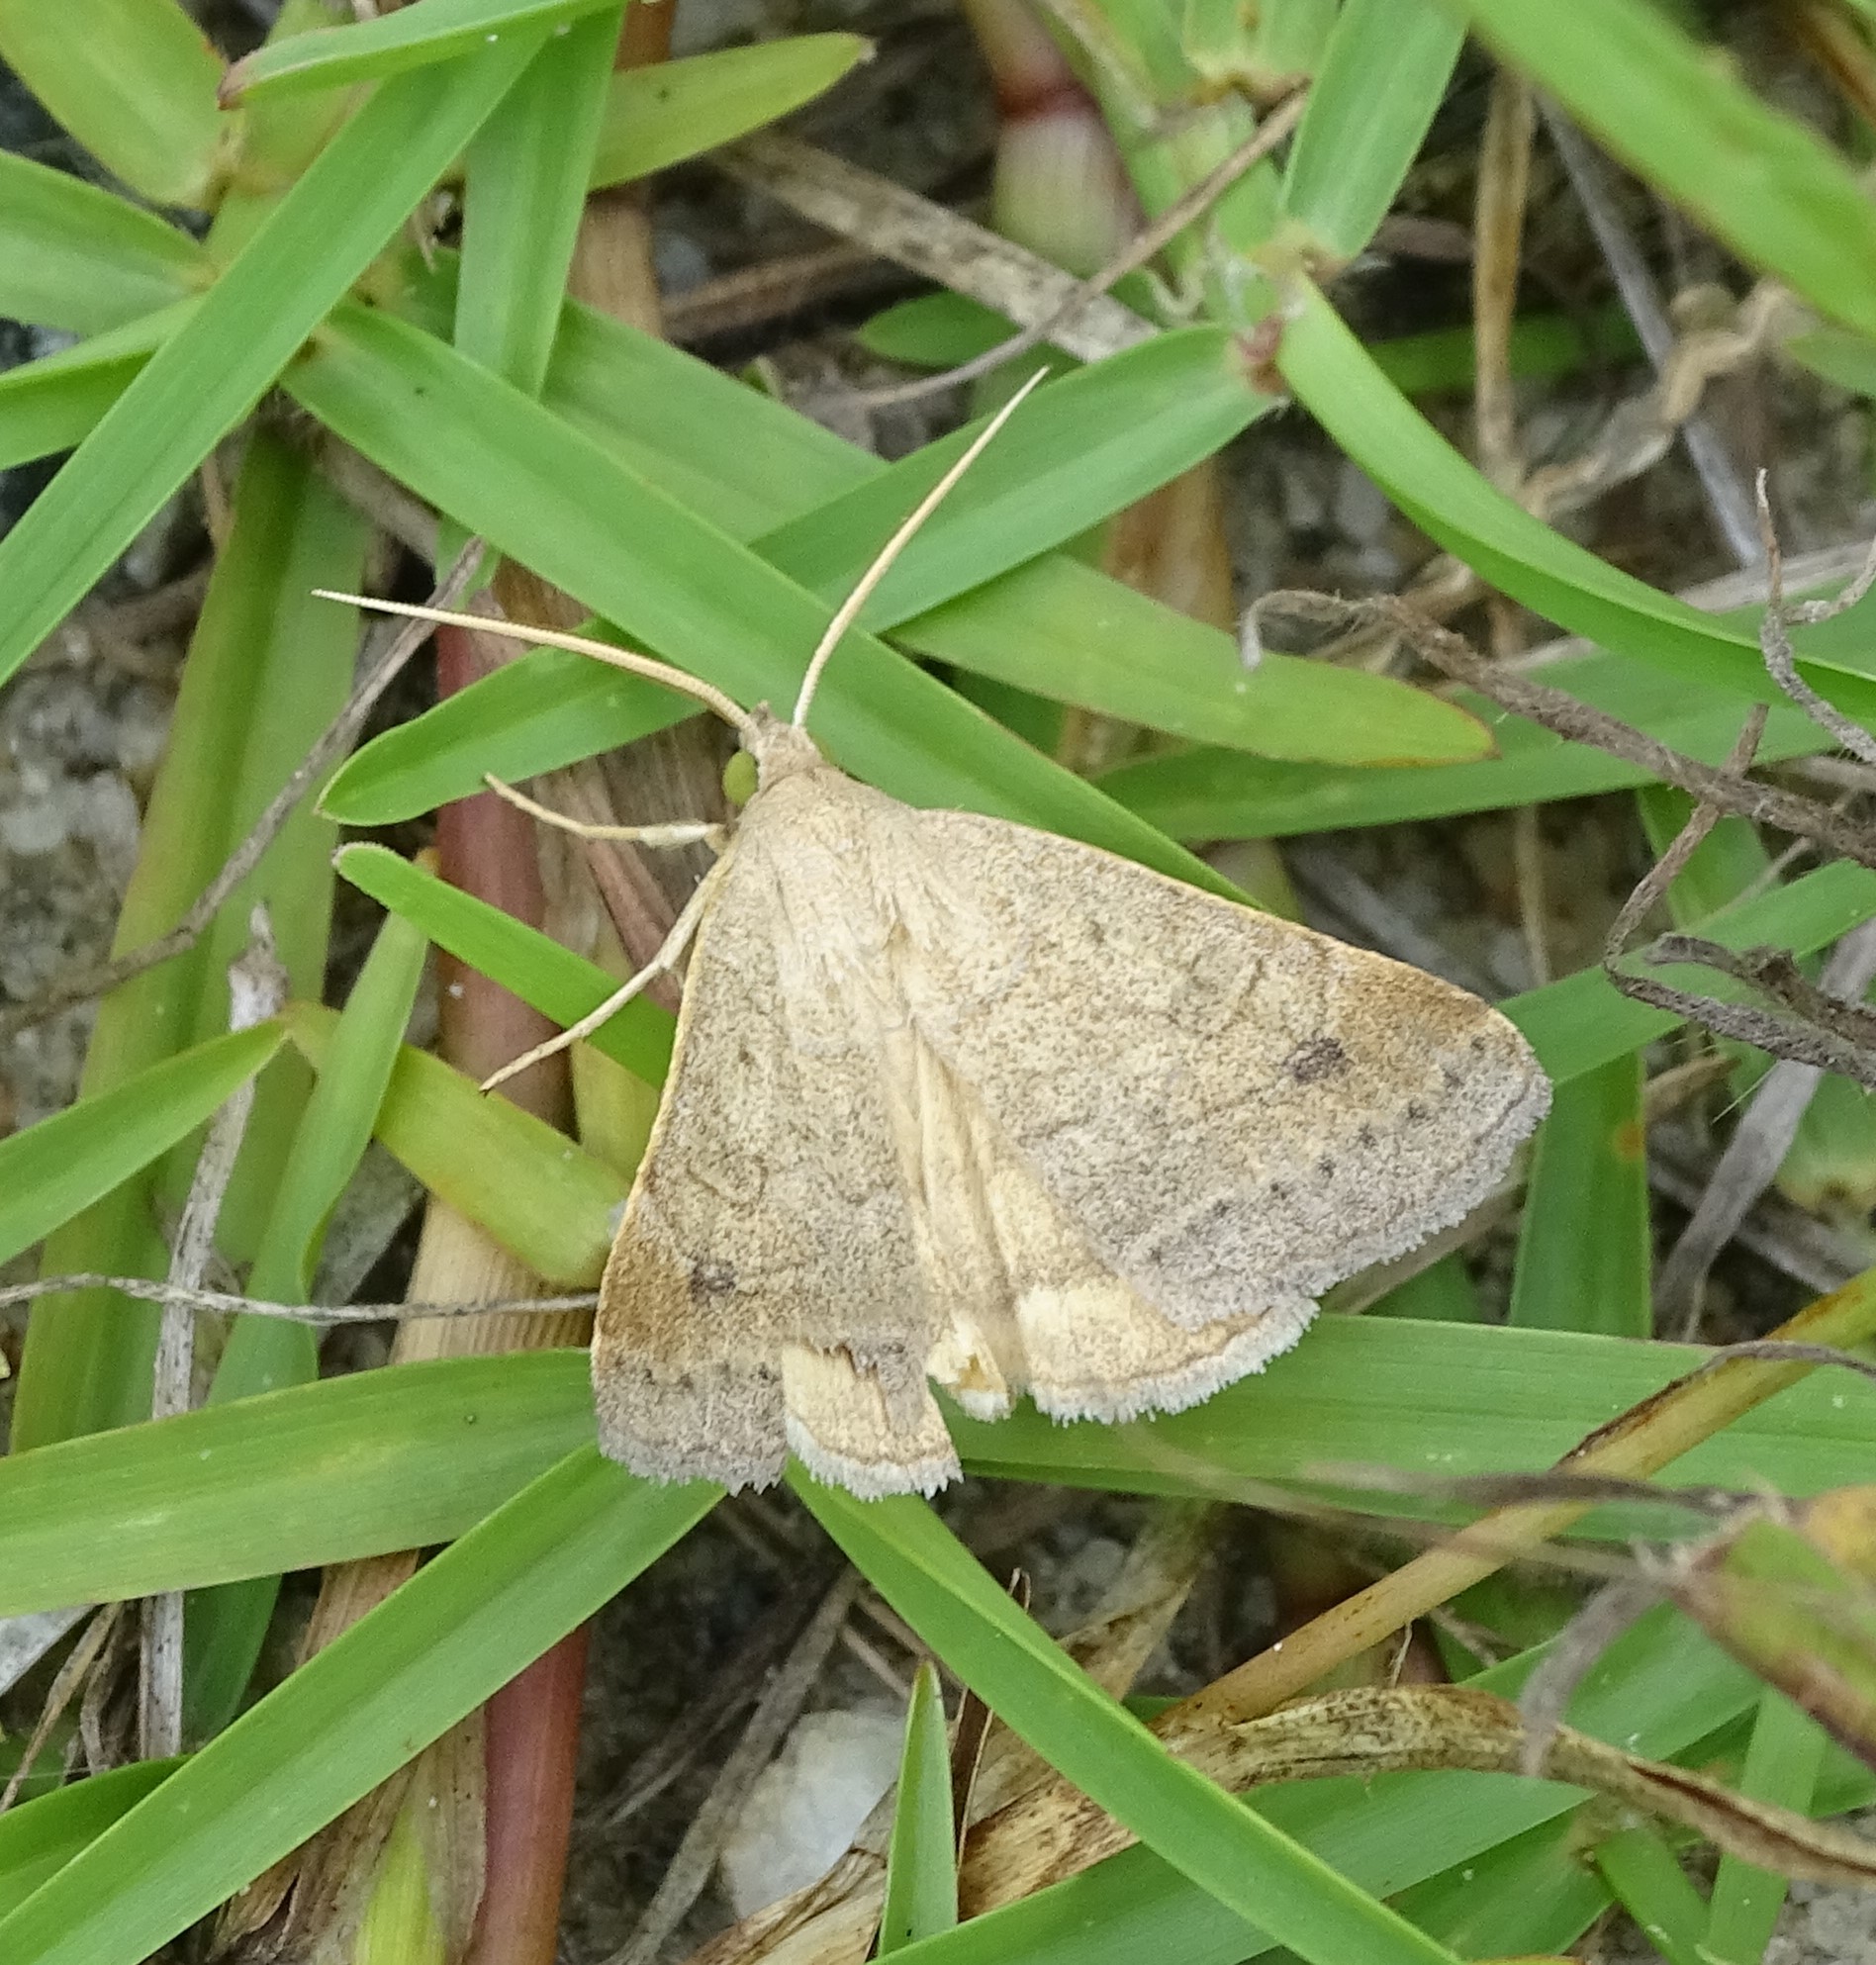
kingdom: Animalia
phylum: Arthropoda
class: Insecta
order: Lepidoptera
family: Erebidae
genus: Caenurgia
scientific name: Caenurgia chloropha
